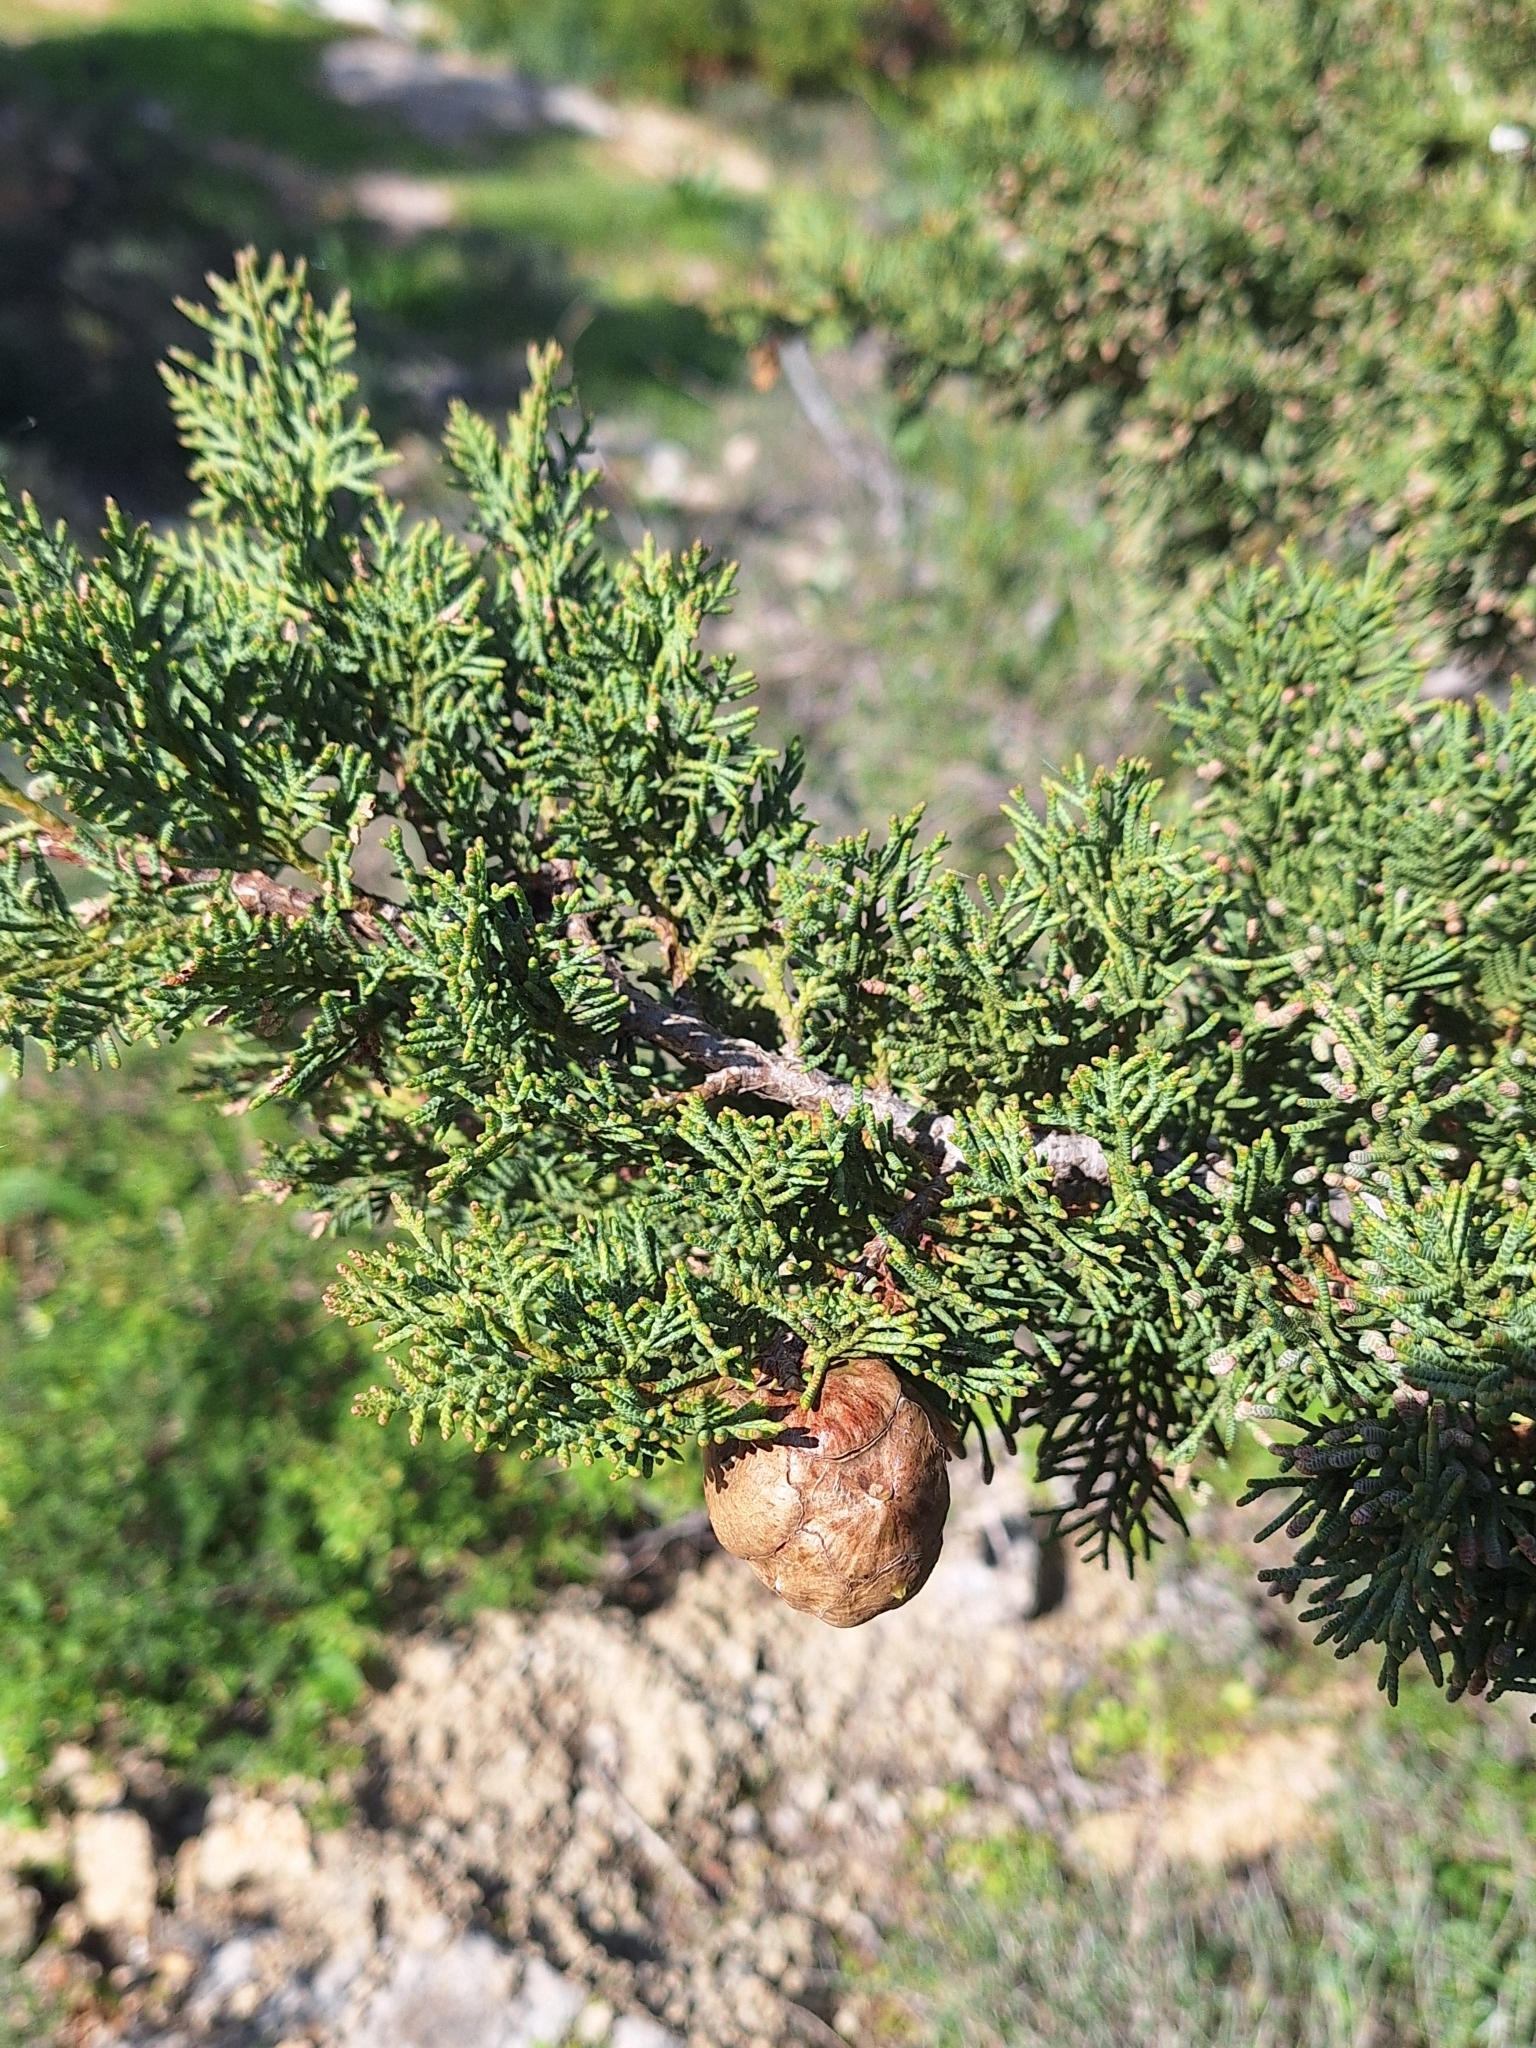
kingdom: Plantae
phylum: Tracheophyta
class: Pinopsida
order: Pinales
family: Cupressaceae
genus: Cupressus
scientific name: Cupressus sempervirens
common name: Italian cypress
